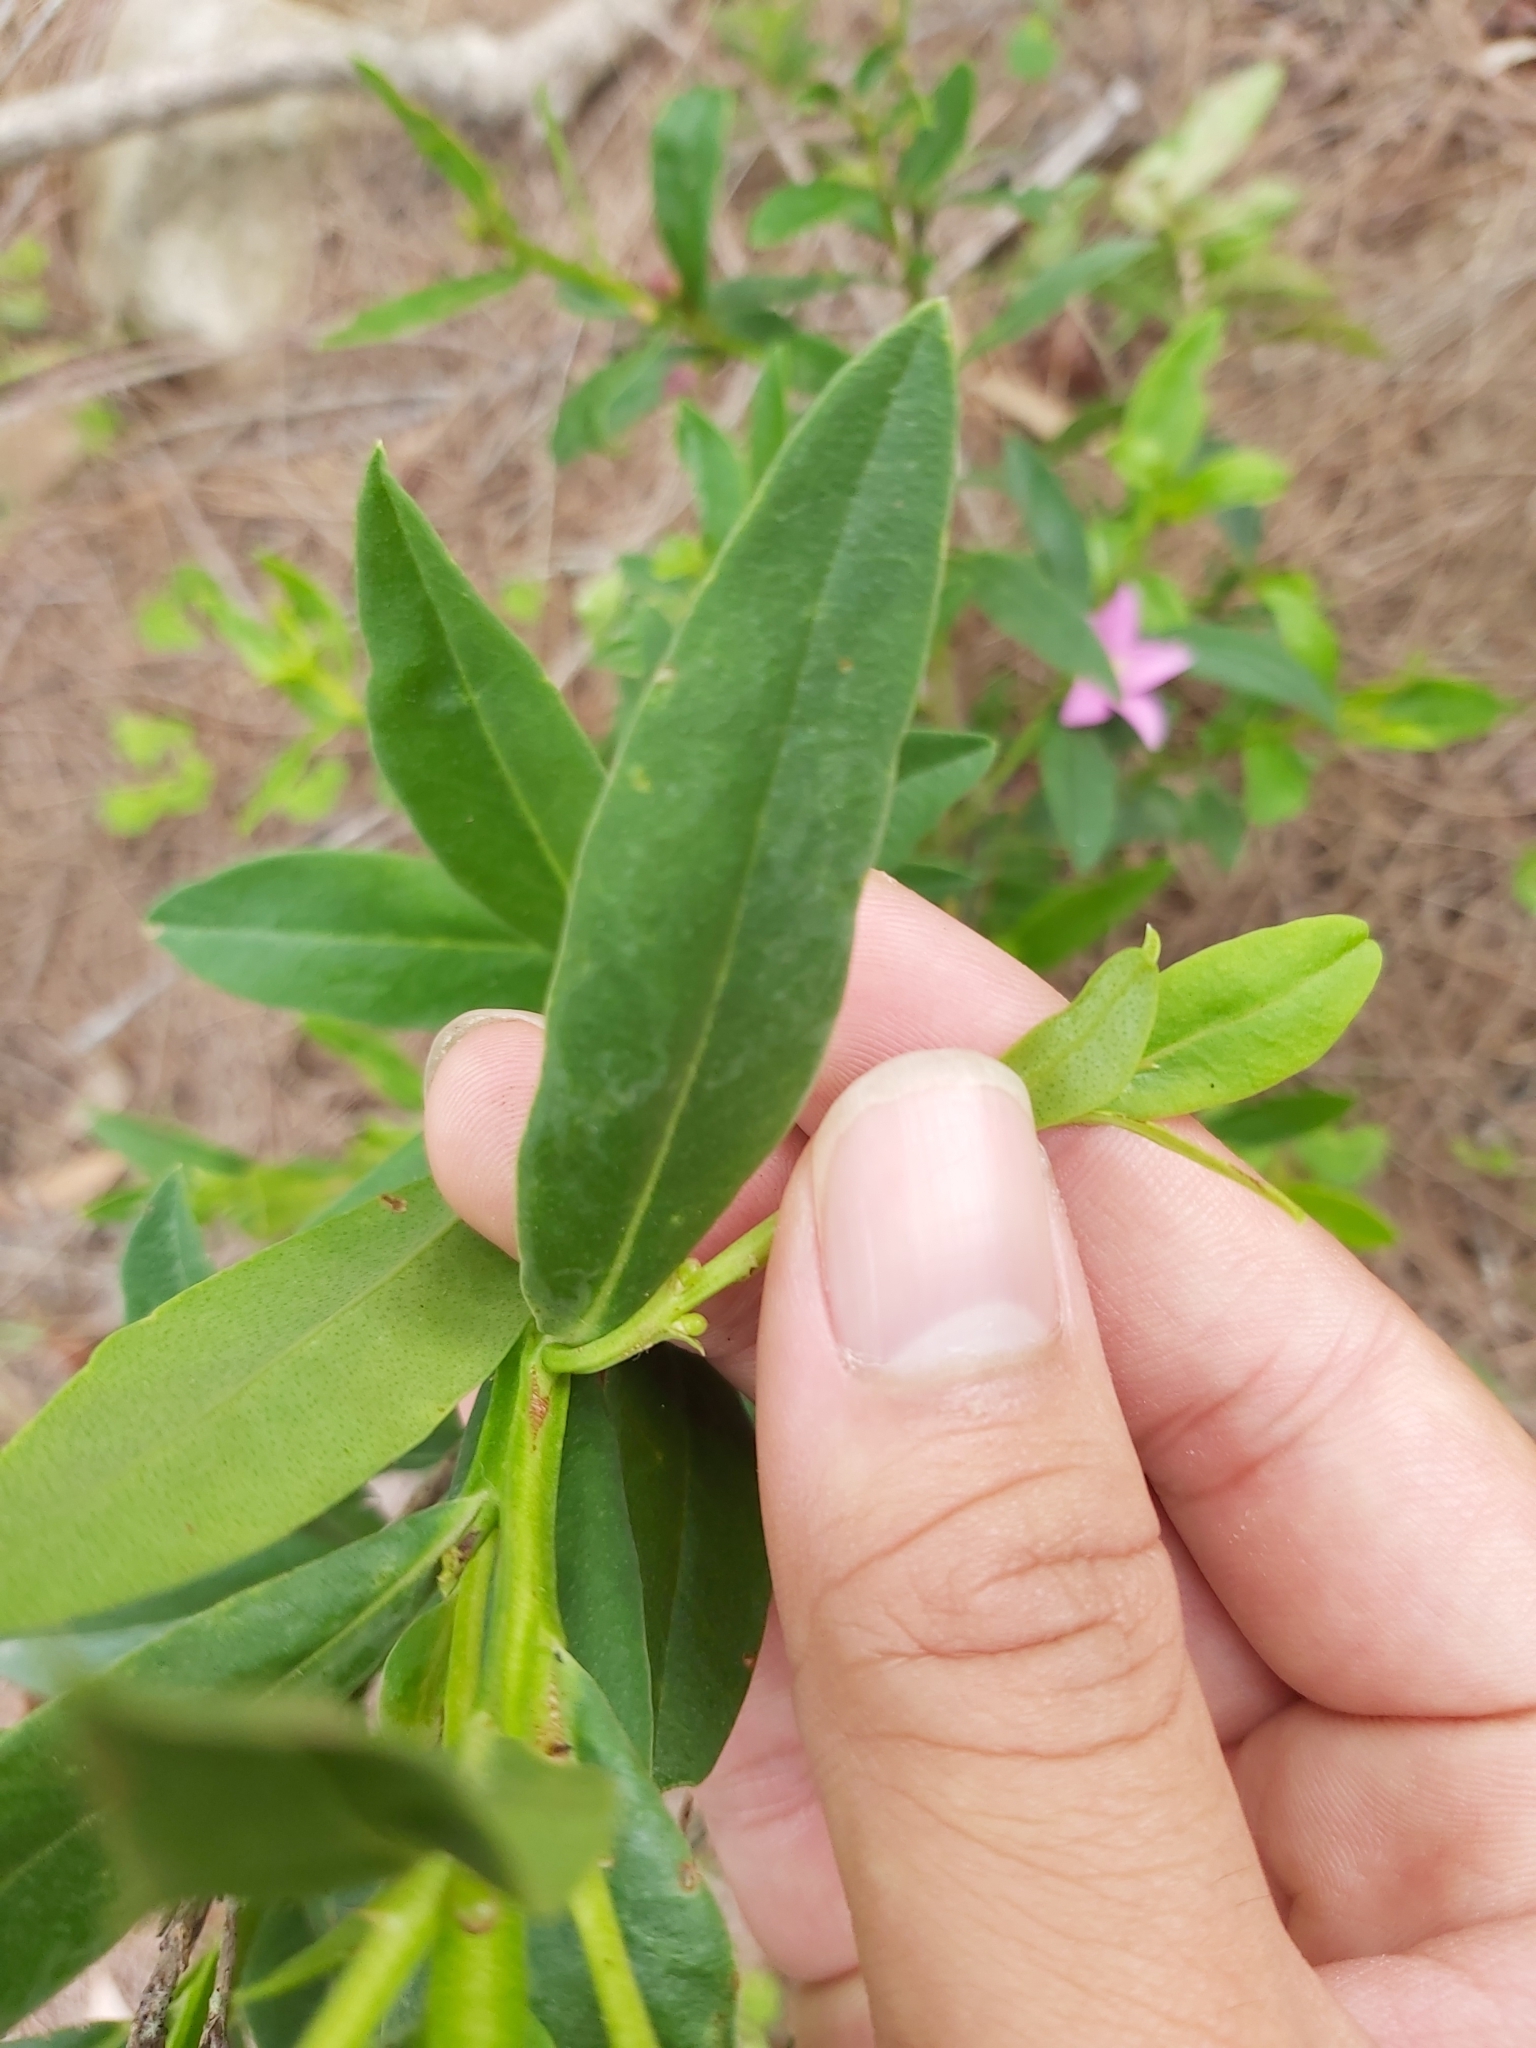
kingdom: Plantae
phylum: Tracheophyta
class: Magnoliopsida
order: Sapindales
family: Rutaceae
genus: Crowea
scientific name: Crowea saligna
